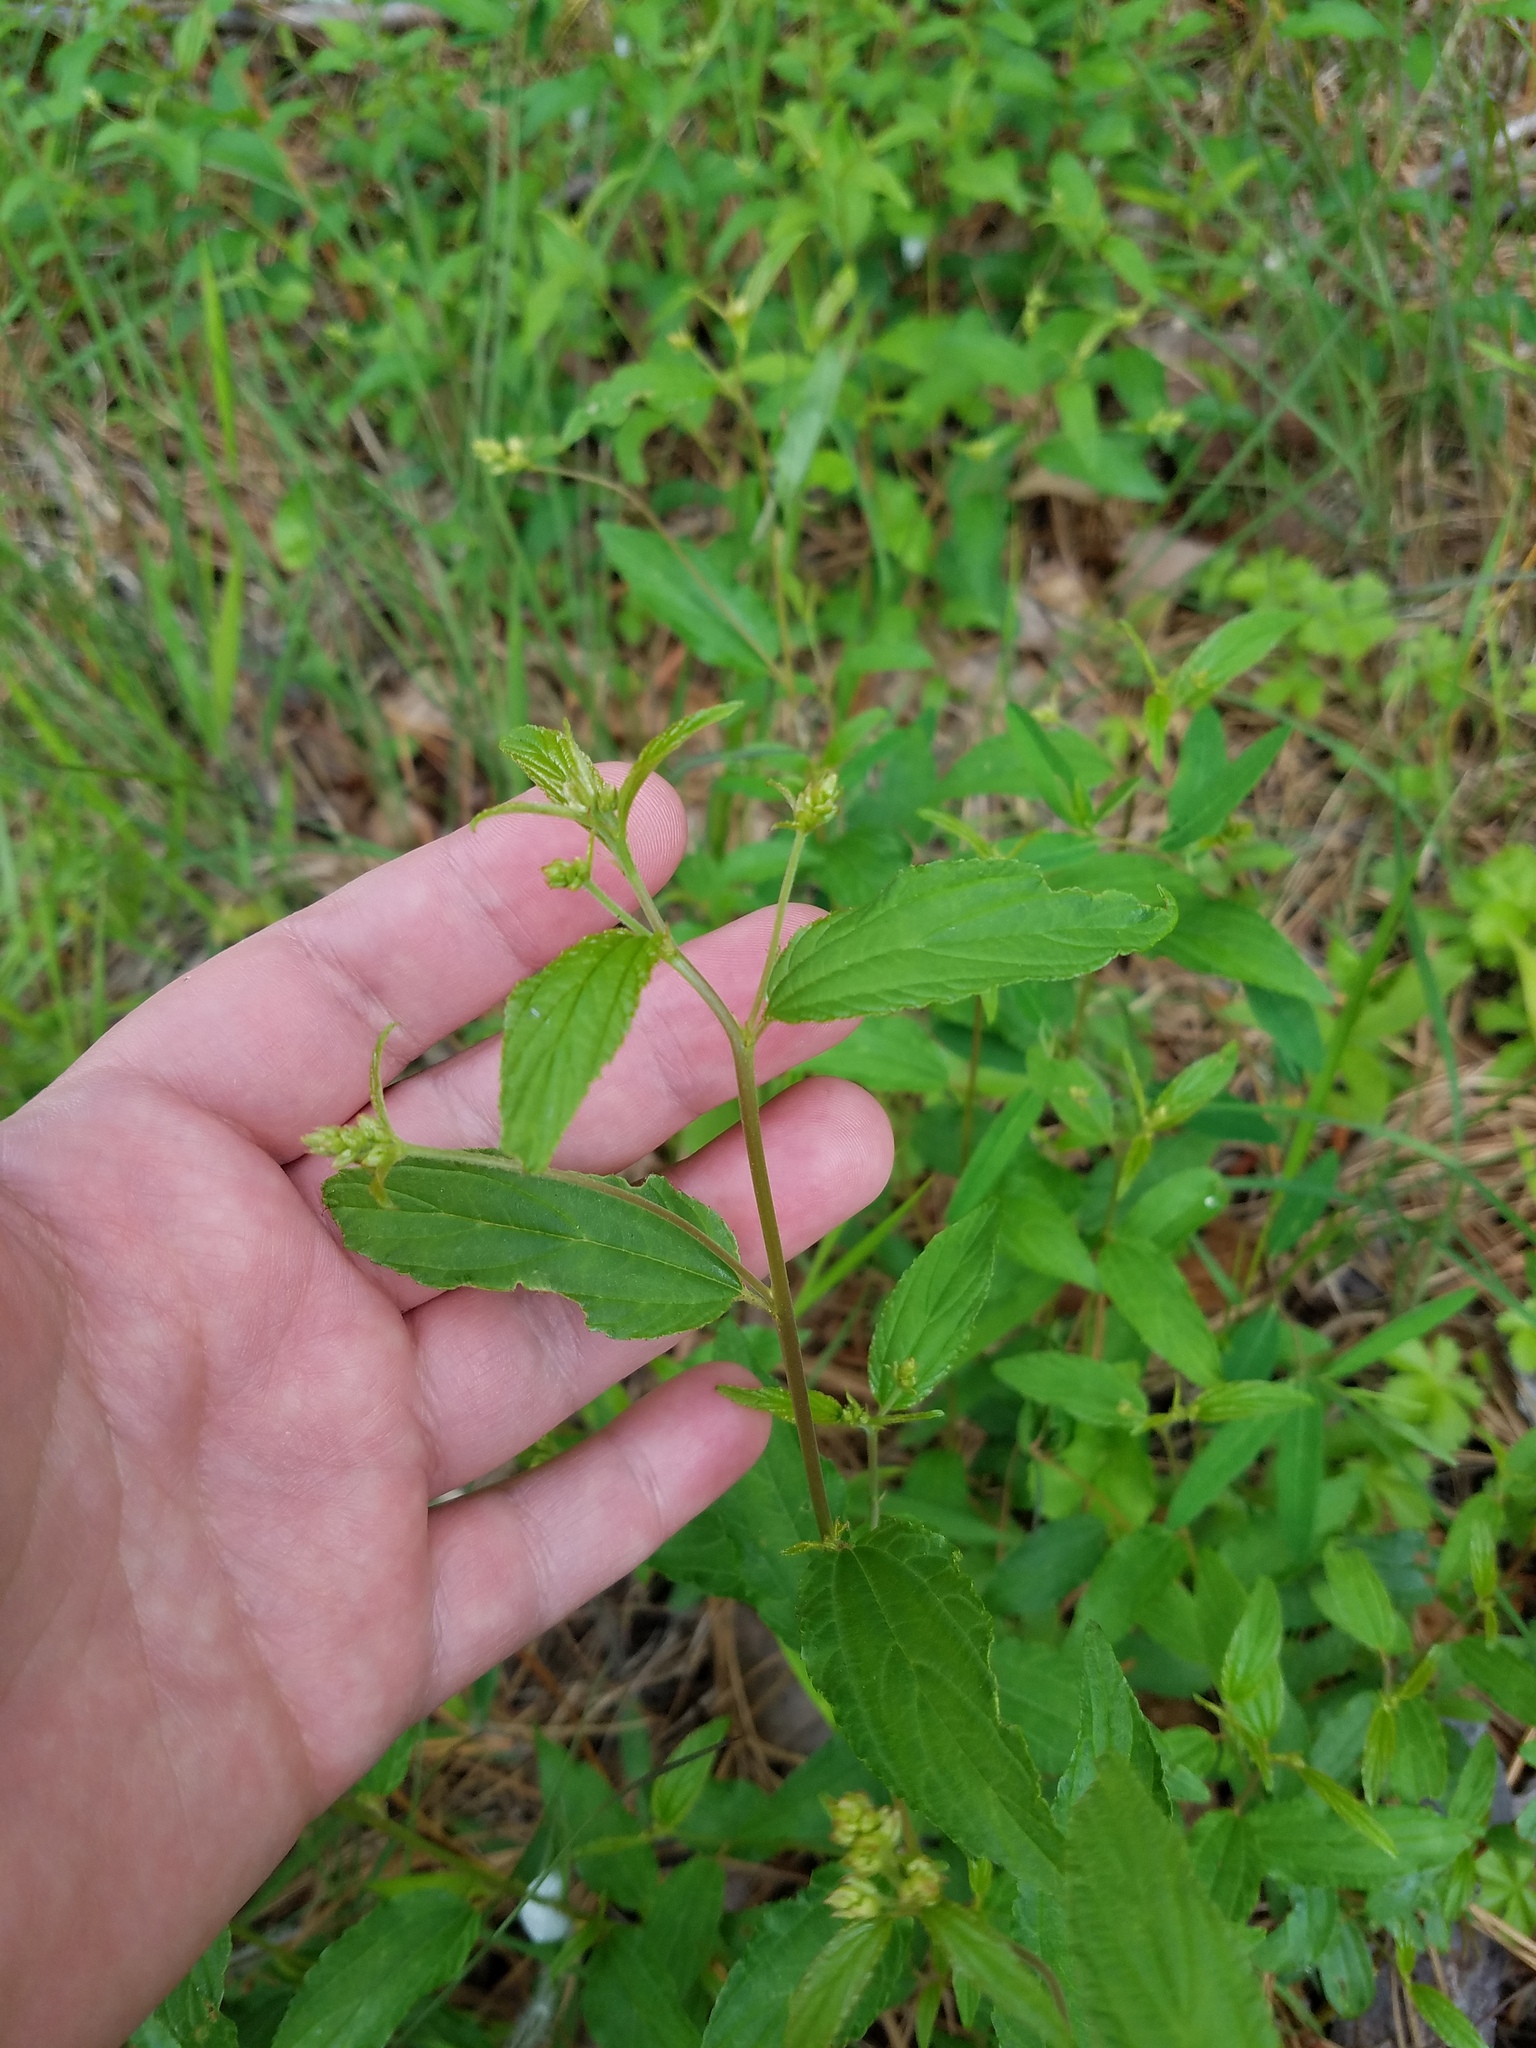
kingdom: Plantae
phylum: Tracheophyta
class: Magnoliopsida
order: Rosales
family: Rhamnaceae
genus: Ceanothus
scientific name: Ceanothus americanus
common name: Redroot
